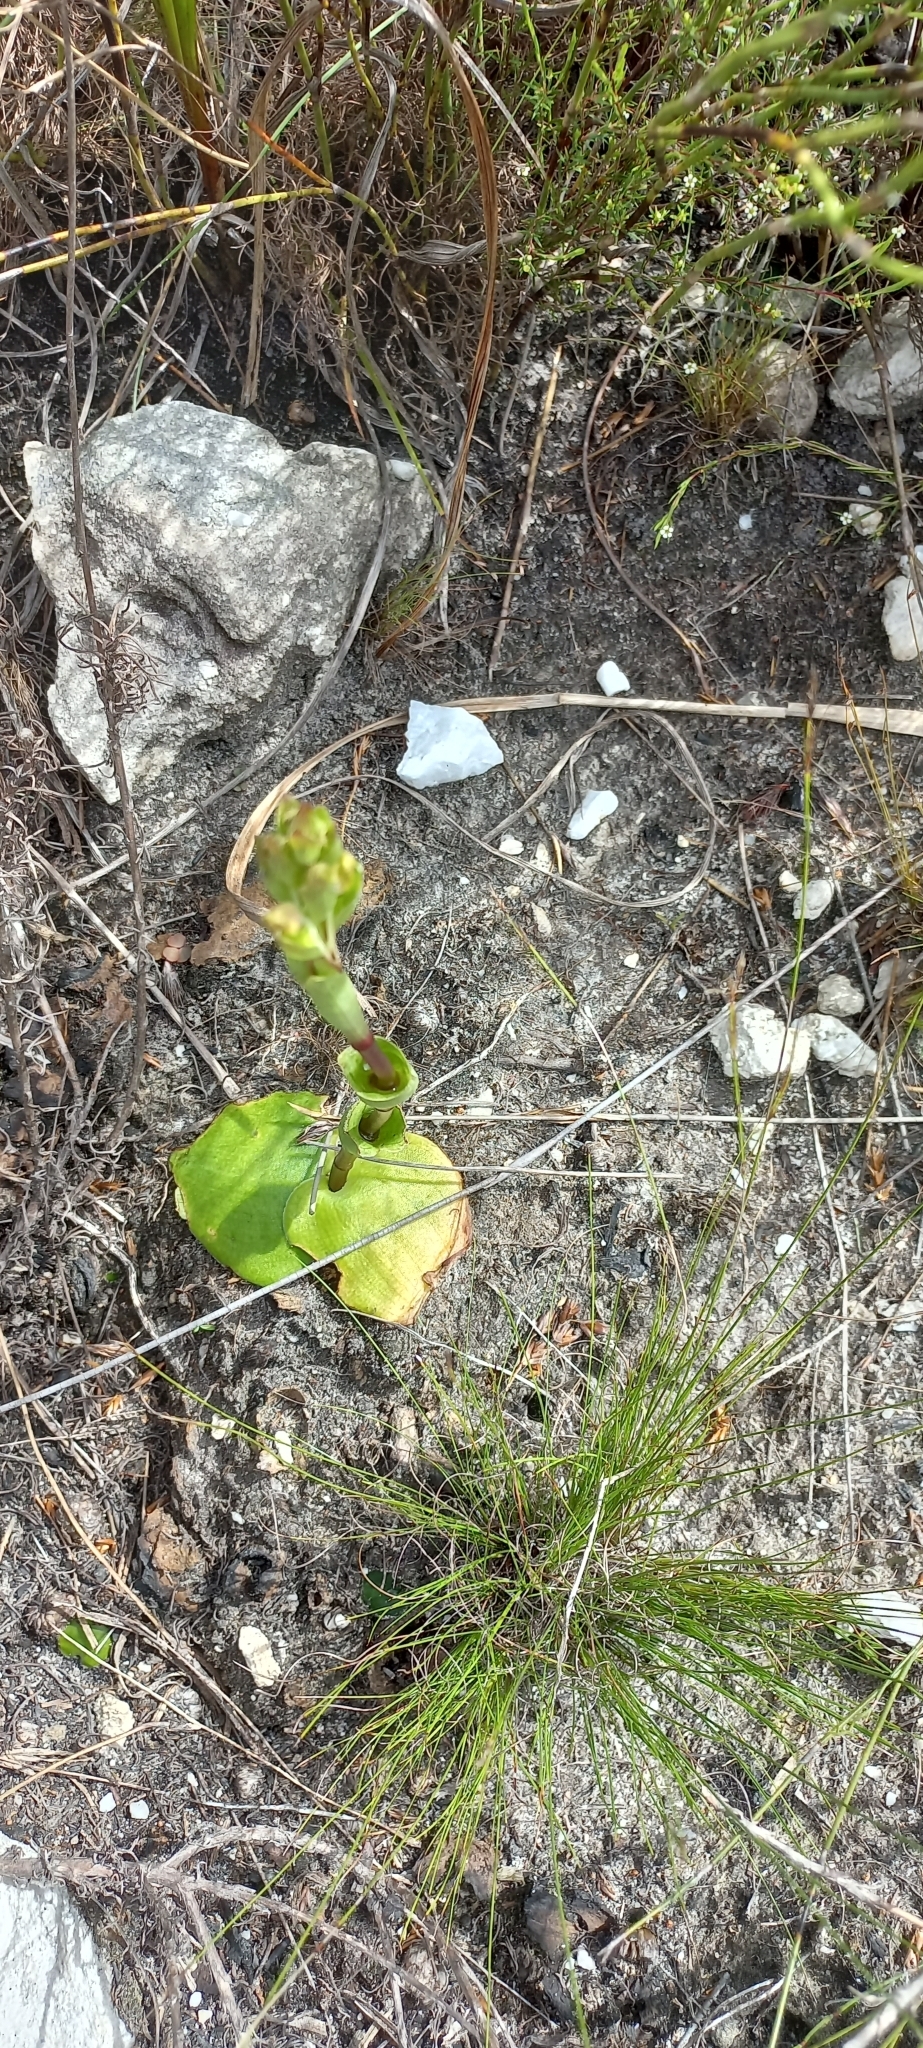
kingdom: Plantae
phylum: Tracheophyta
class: Liliopsida
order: Asparagales
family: Orchidaceae
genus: Satyrium
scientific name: Satyrium bicorne
